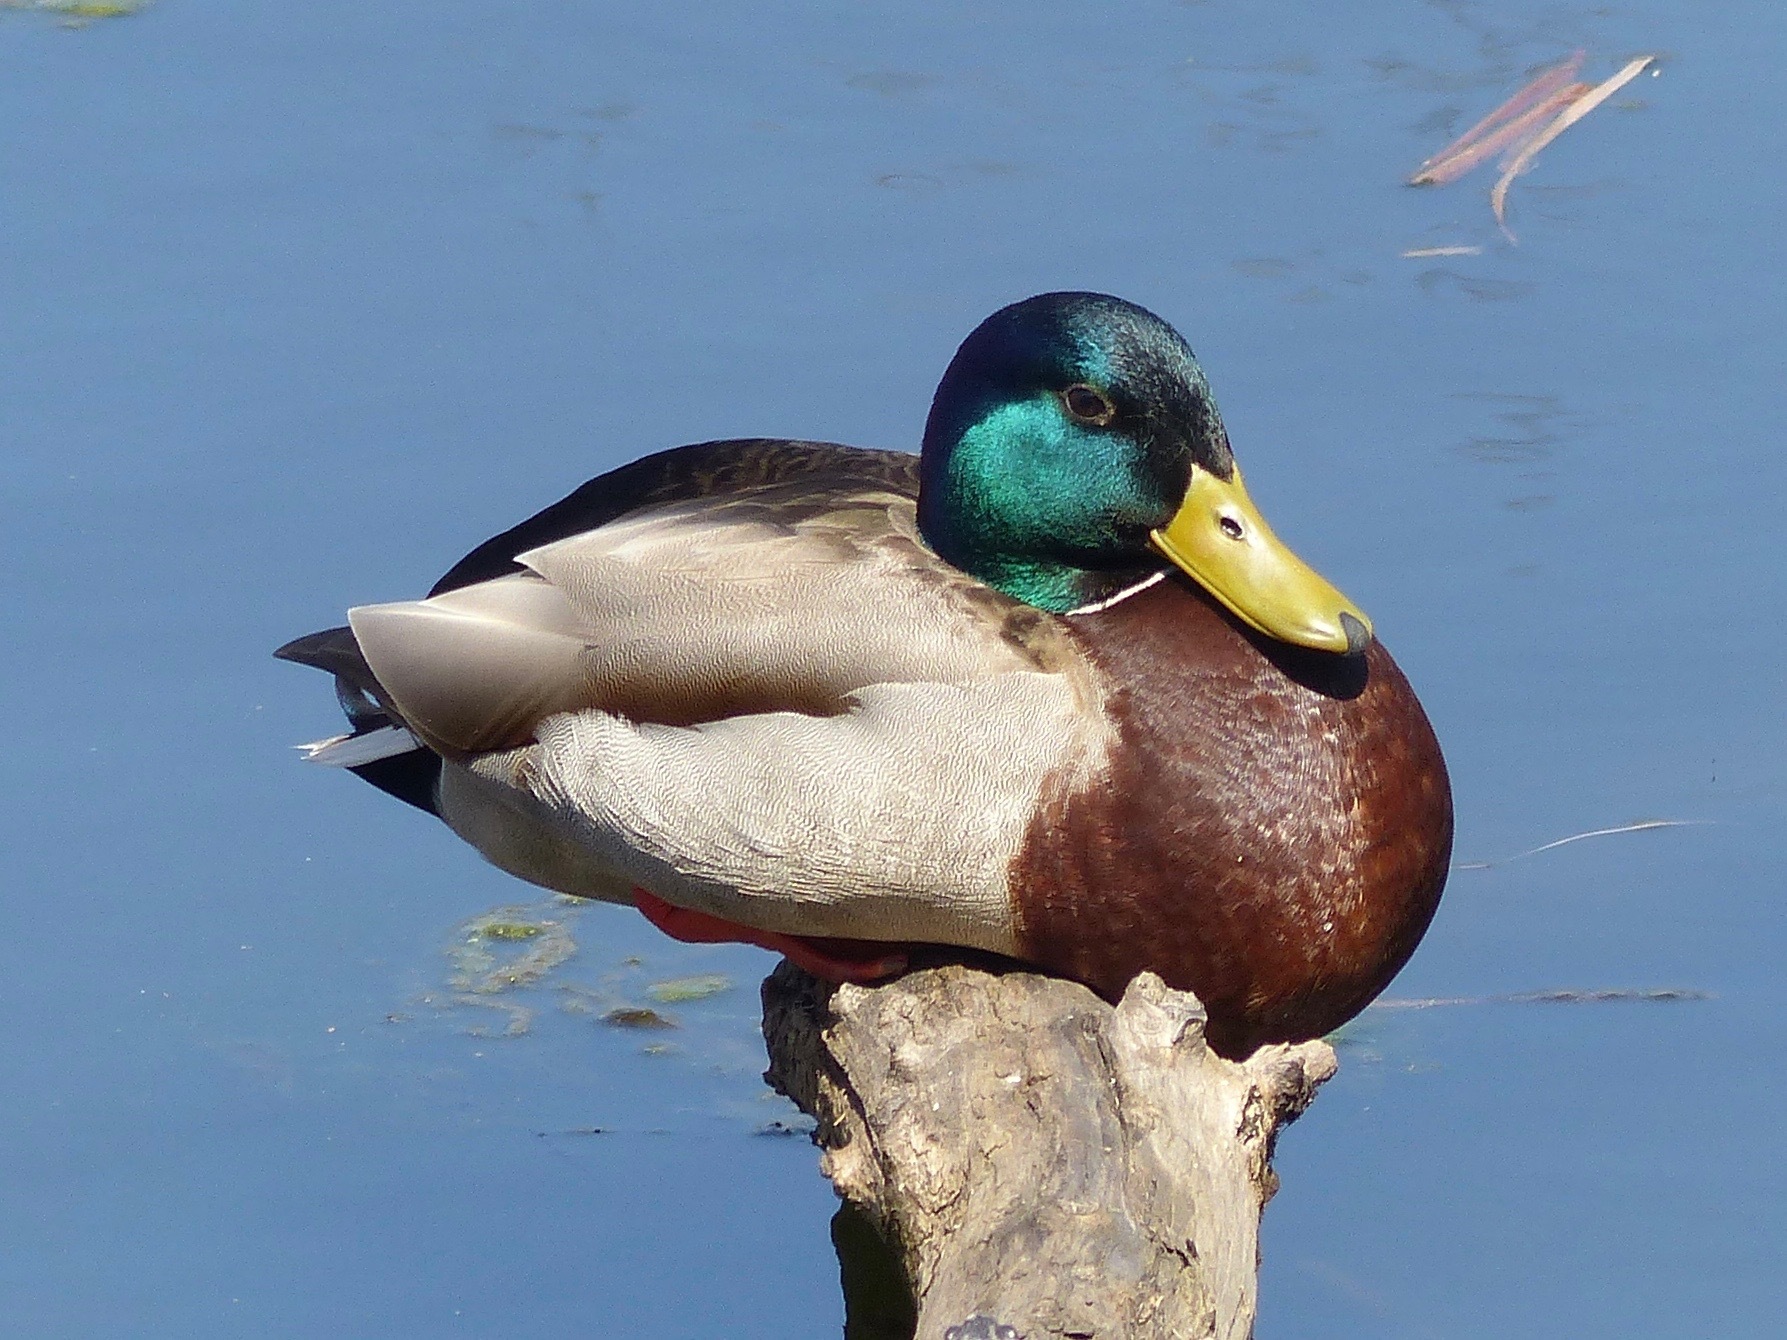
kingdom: Animalia
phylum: Chordata
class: Aves
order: Anseriformes
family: Anatidae
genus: Anas
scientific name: Anas platyrhynchos
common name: Mallard
